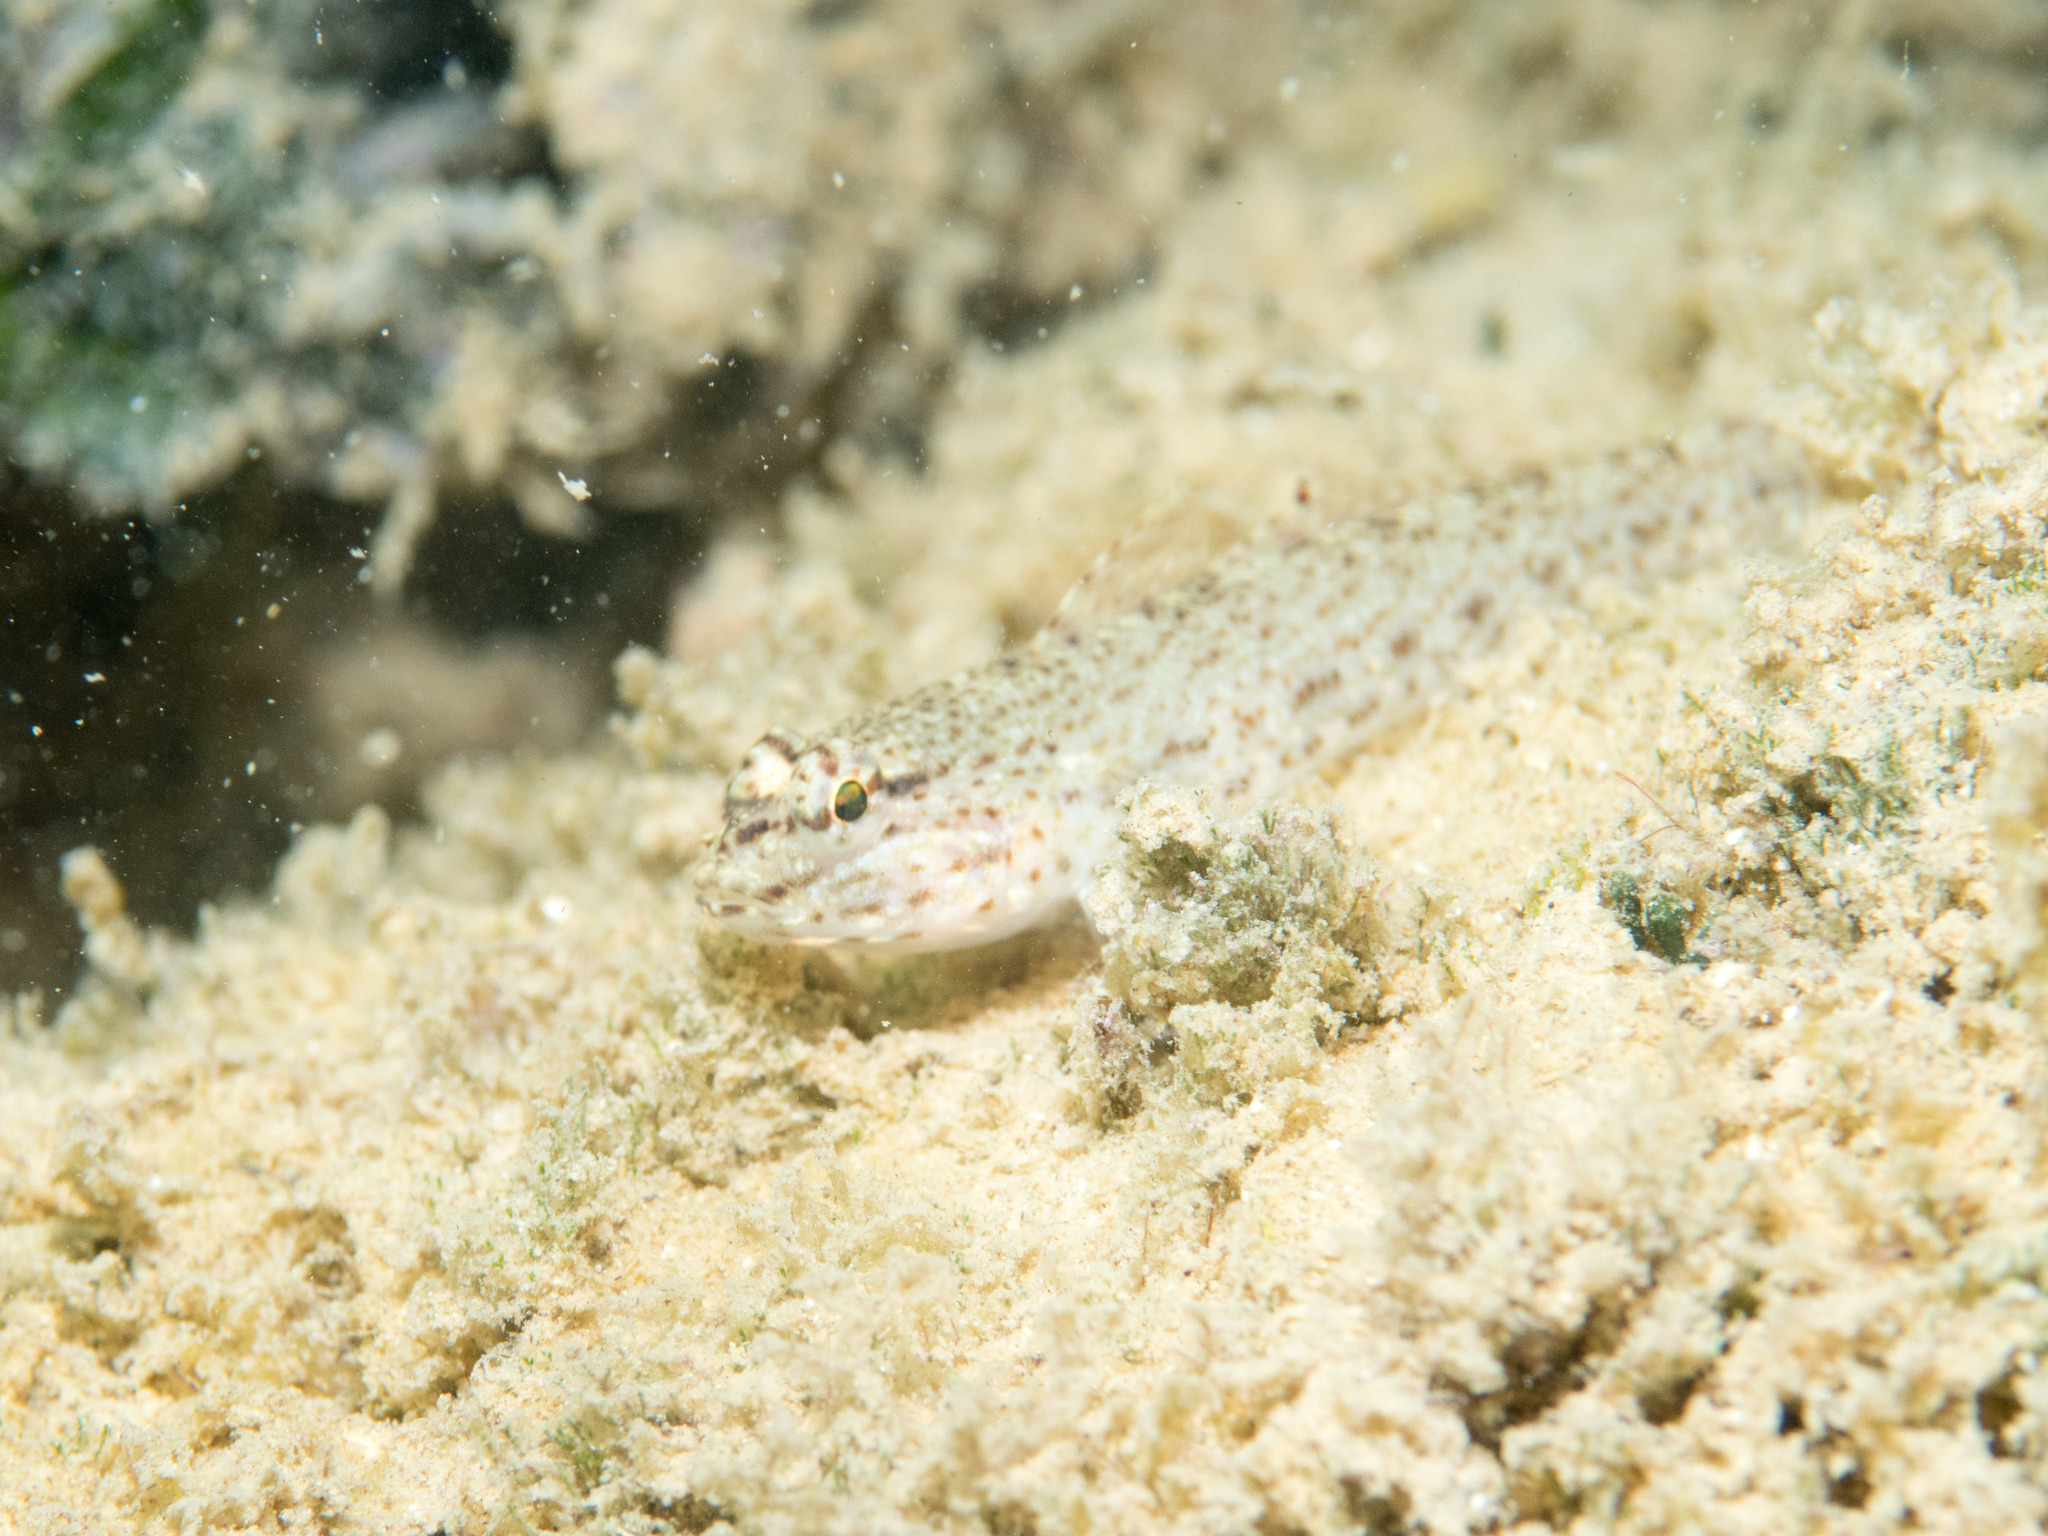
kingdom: Animalia
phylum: Chordata
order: Perciformes
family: Gobiidae
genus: Gobius
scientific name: Gobius incognitus
